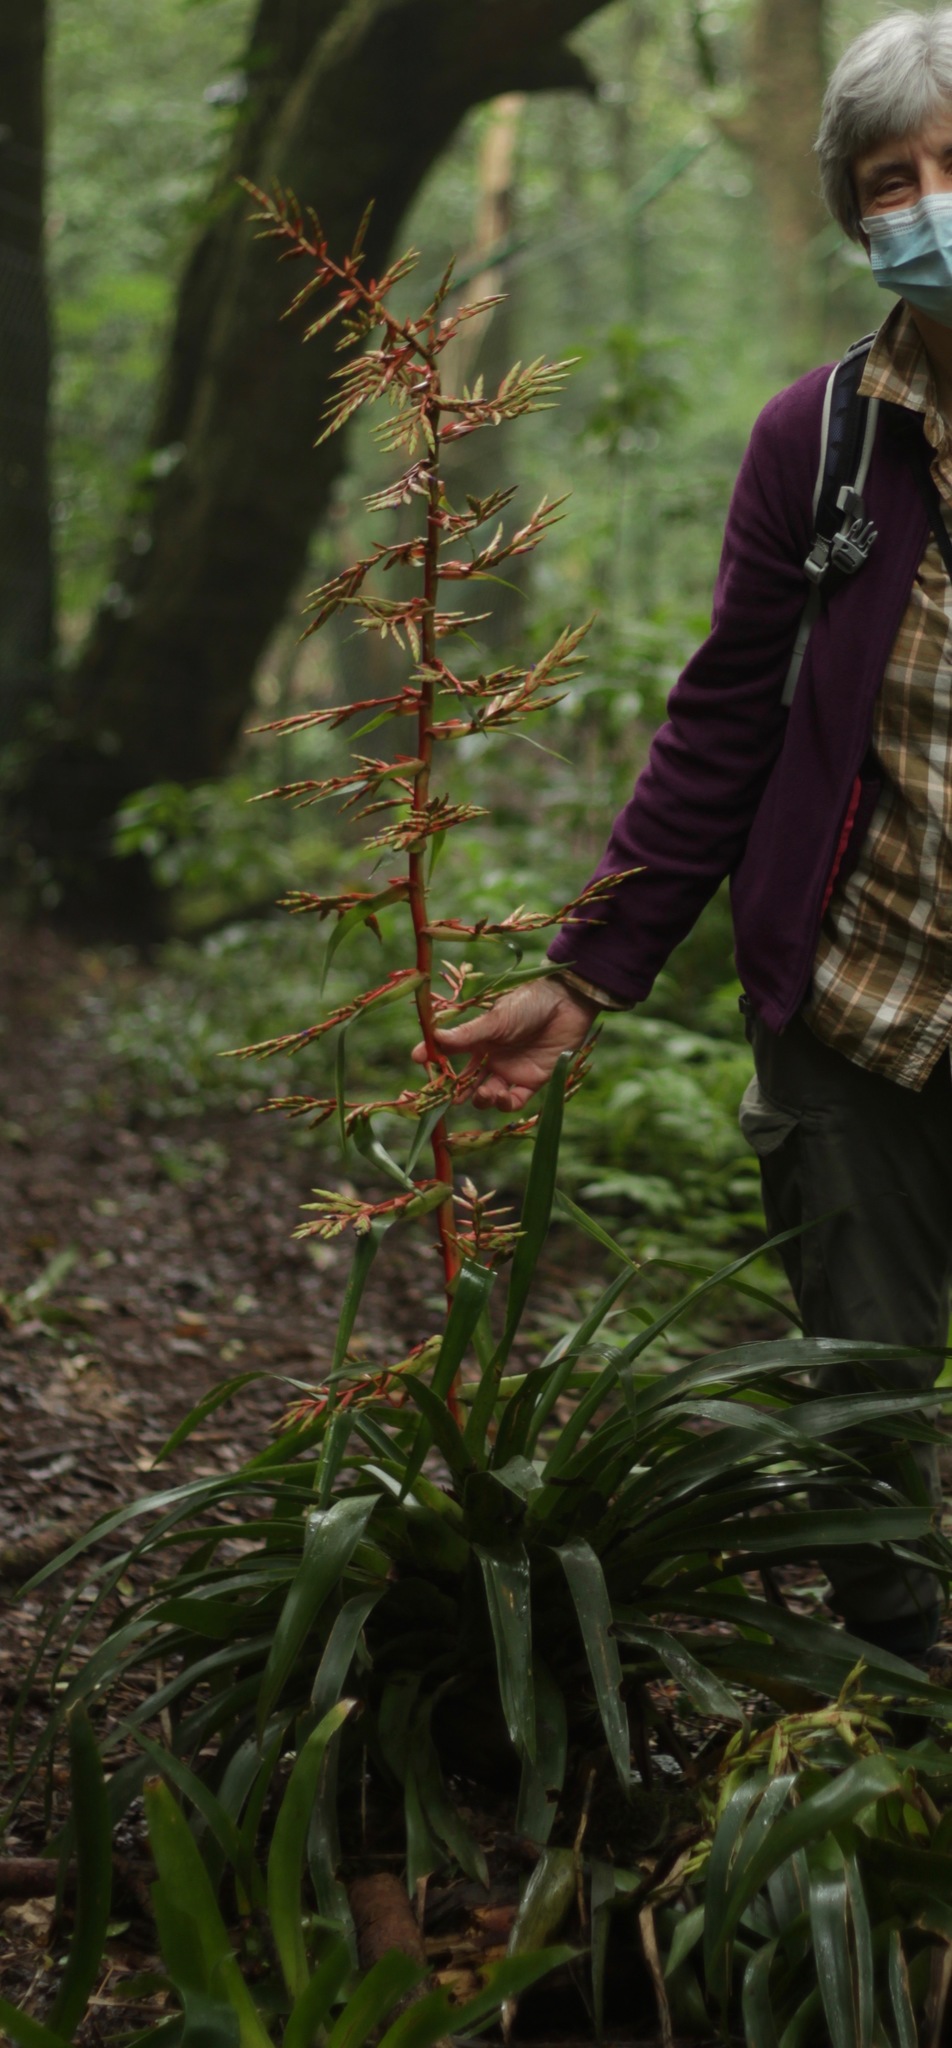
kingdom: Plantae
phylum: Tracheophyta
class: Liliopsida
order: Poales
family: Bromeliaceae
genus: Tillandsia
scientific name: Tillandsia guatemalensis
